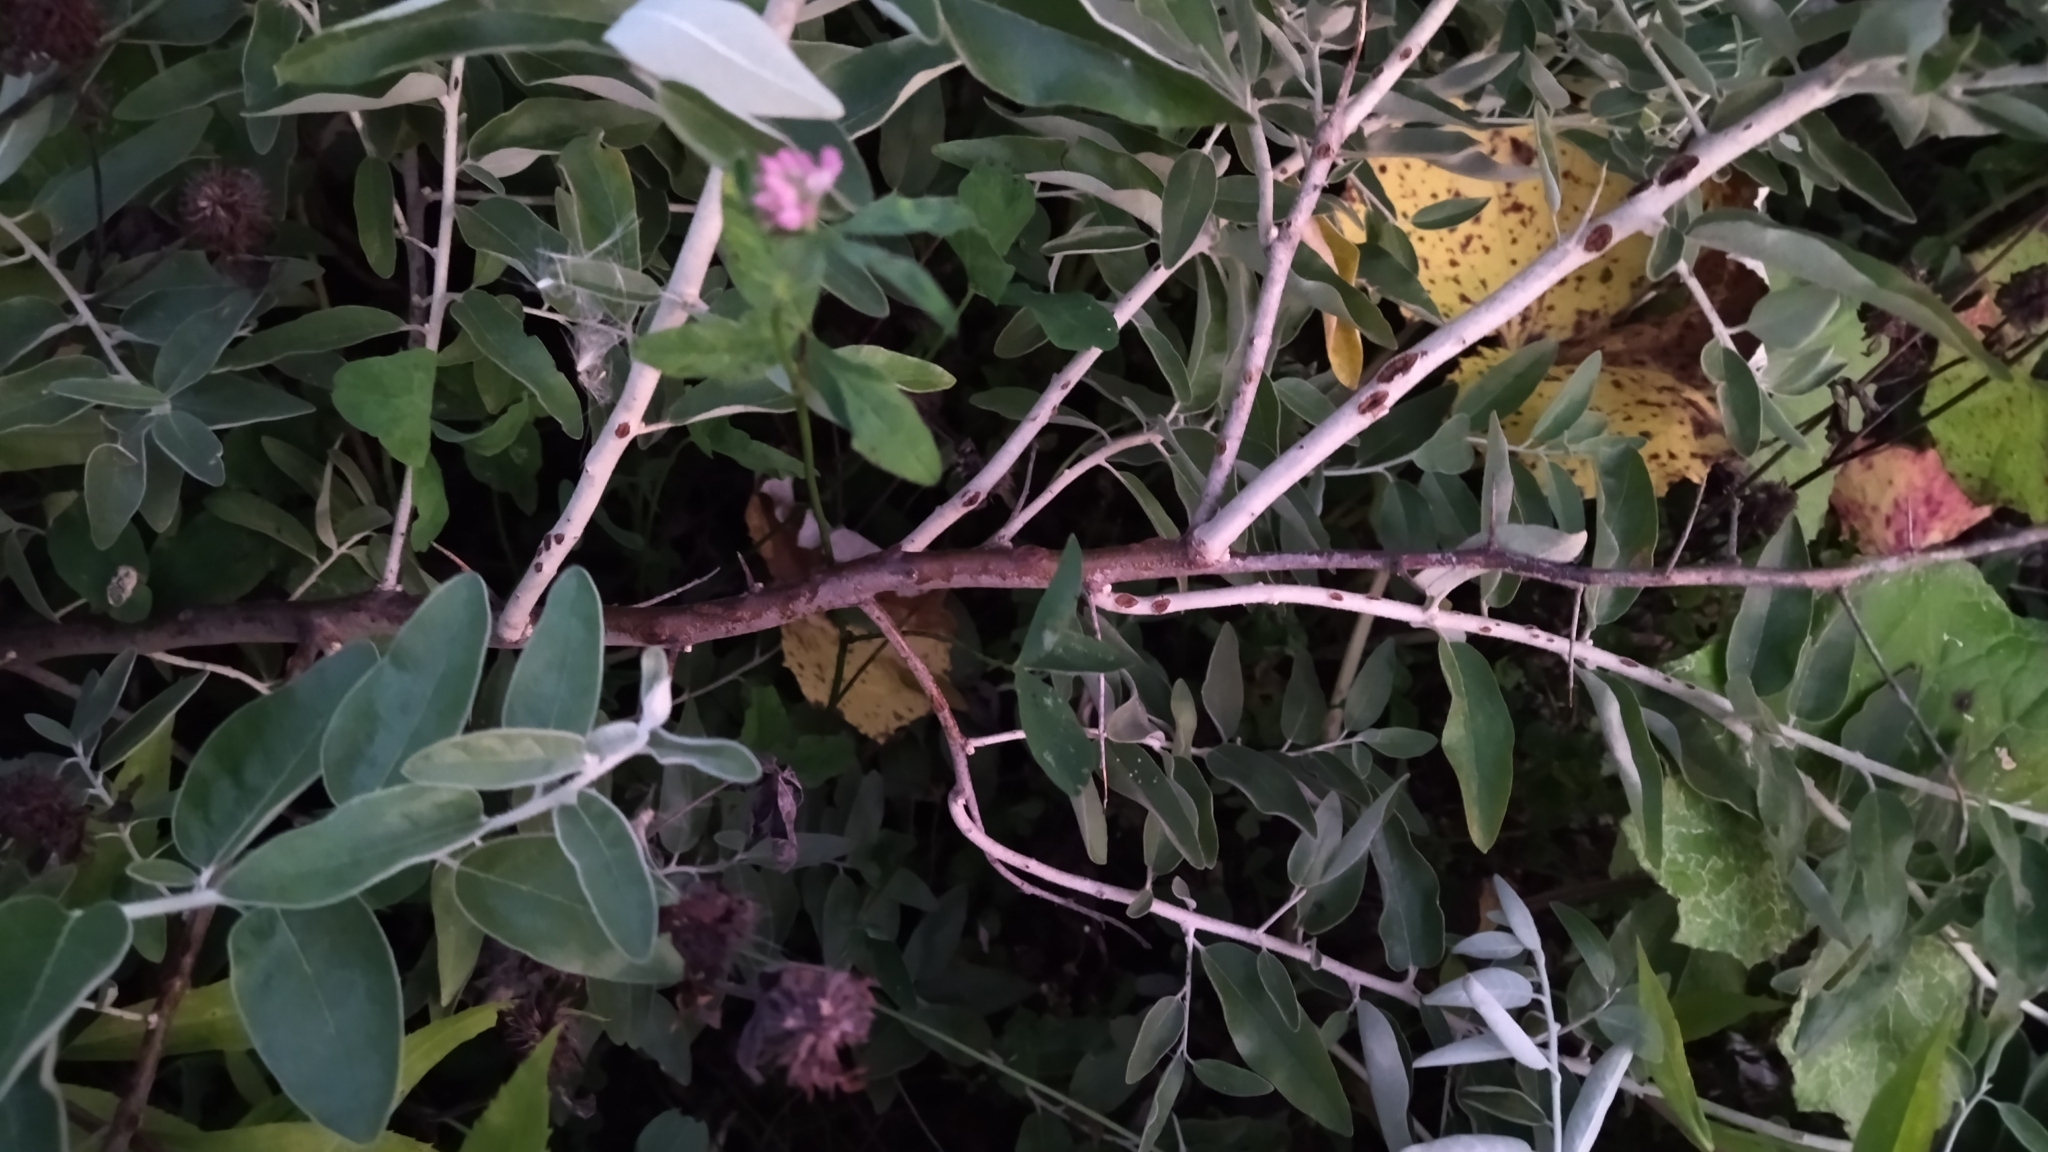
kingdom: Plantae
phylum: Tracheophyta
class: Magnoliopsida
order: Rosales
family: Elaeagnaceae
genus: Elaeagnus
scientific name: Elaeagnus angustifolia
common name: Russian olive
